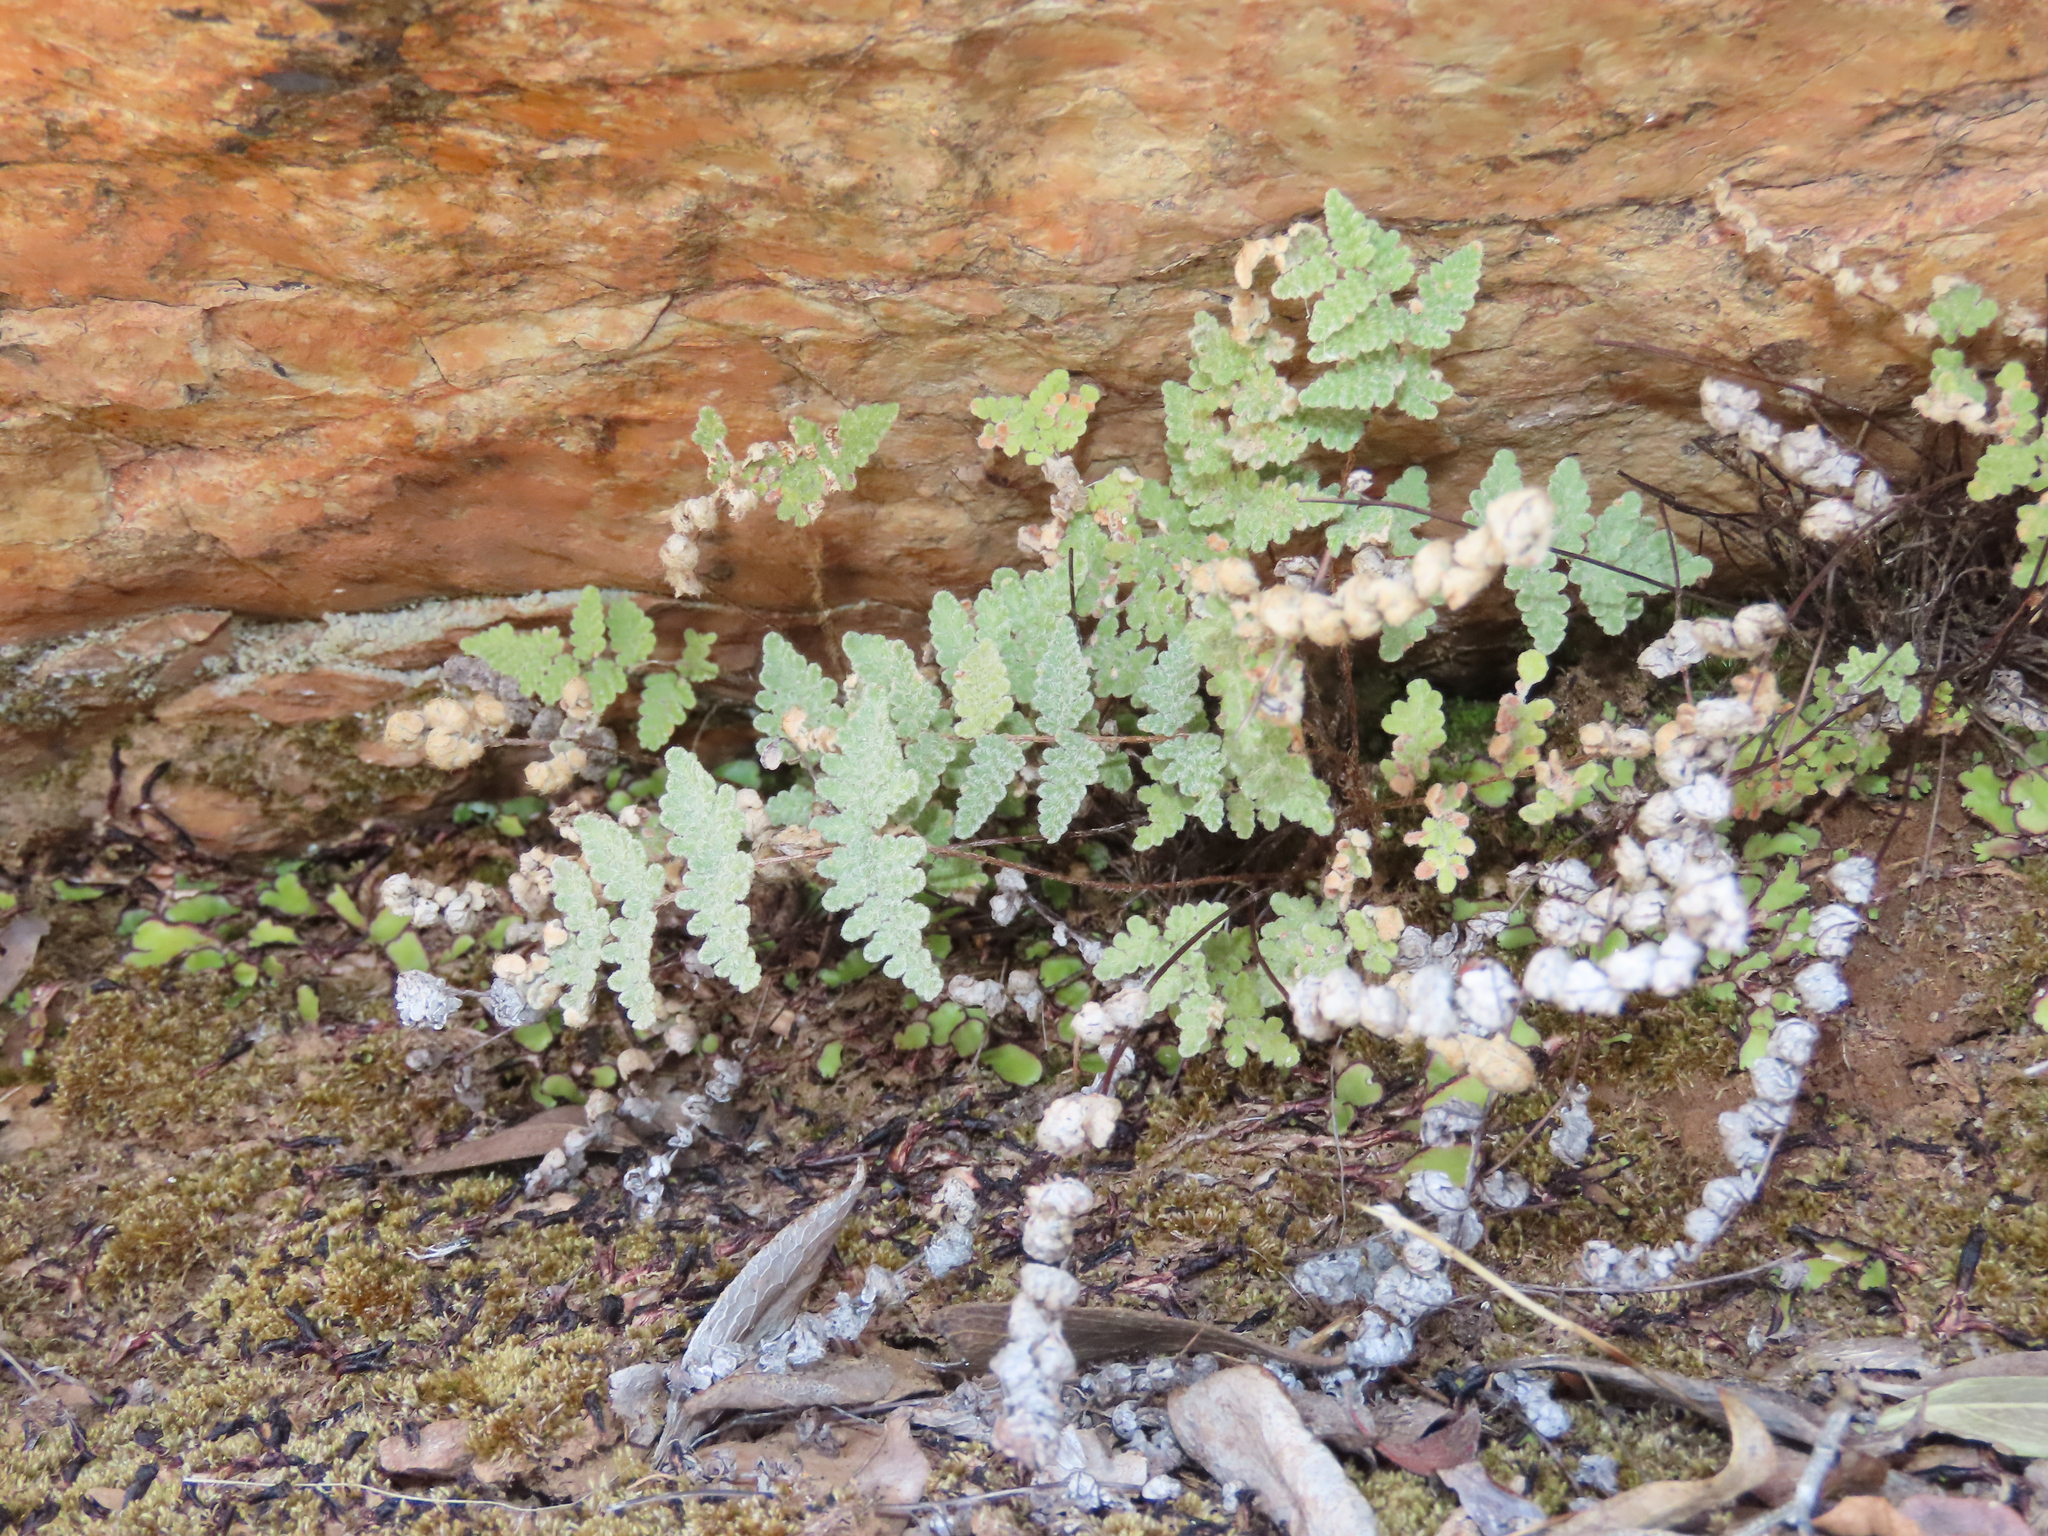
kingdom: Plantae
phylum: Tracheophyta
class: Polypodiopsida
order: Polypodiales
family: Pteridaceae
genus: Myriopteris
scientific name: Myriopteris rufa
